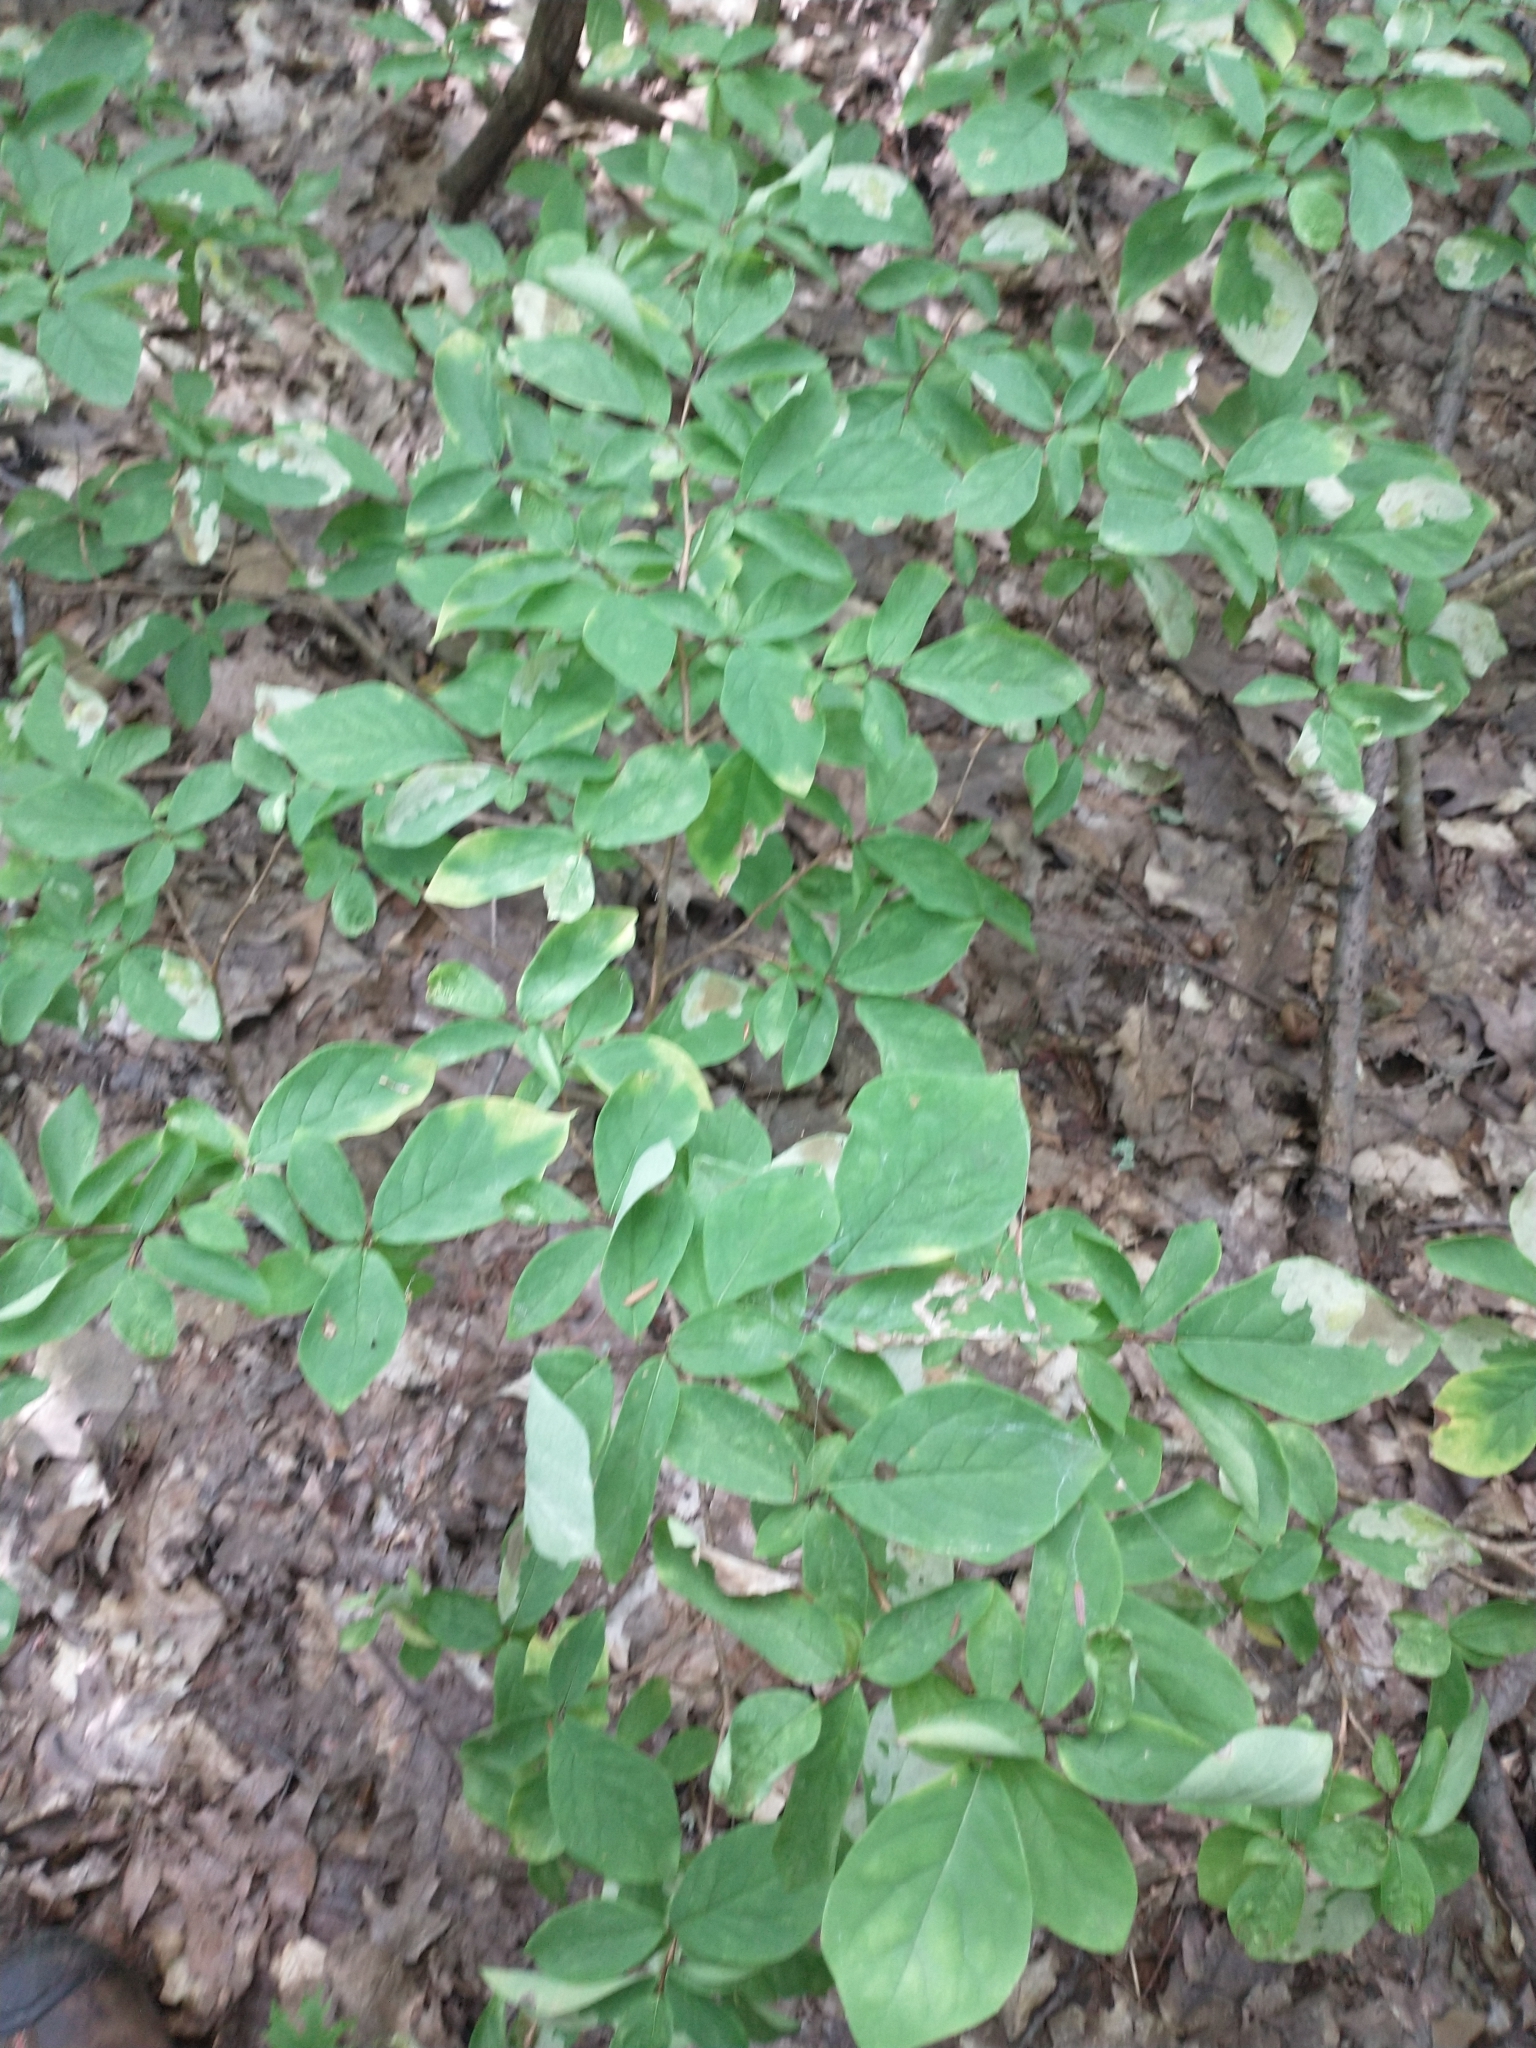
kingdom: Plantae
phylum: Tracheophyta
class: Magnoliopsida
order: Malvales
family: Thymelaeaceae
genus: Dirca
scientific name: Dirca palustris
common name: Leatherwood
